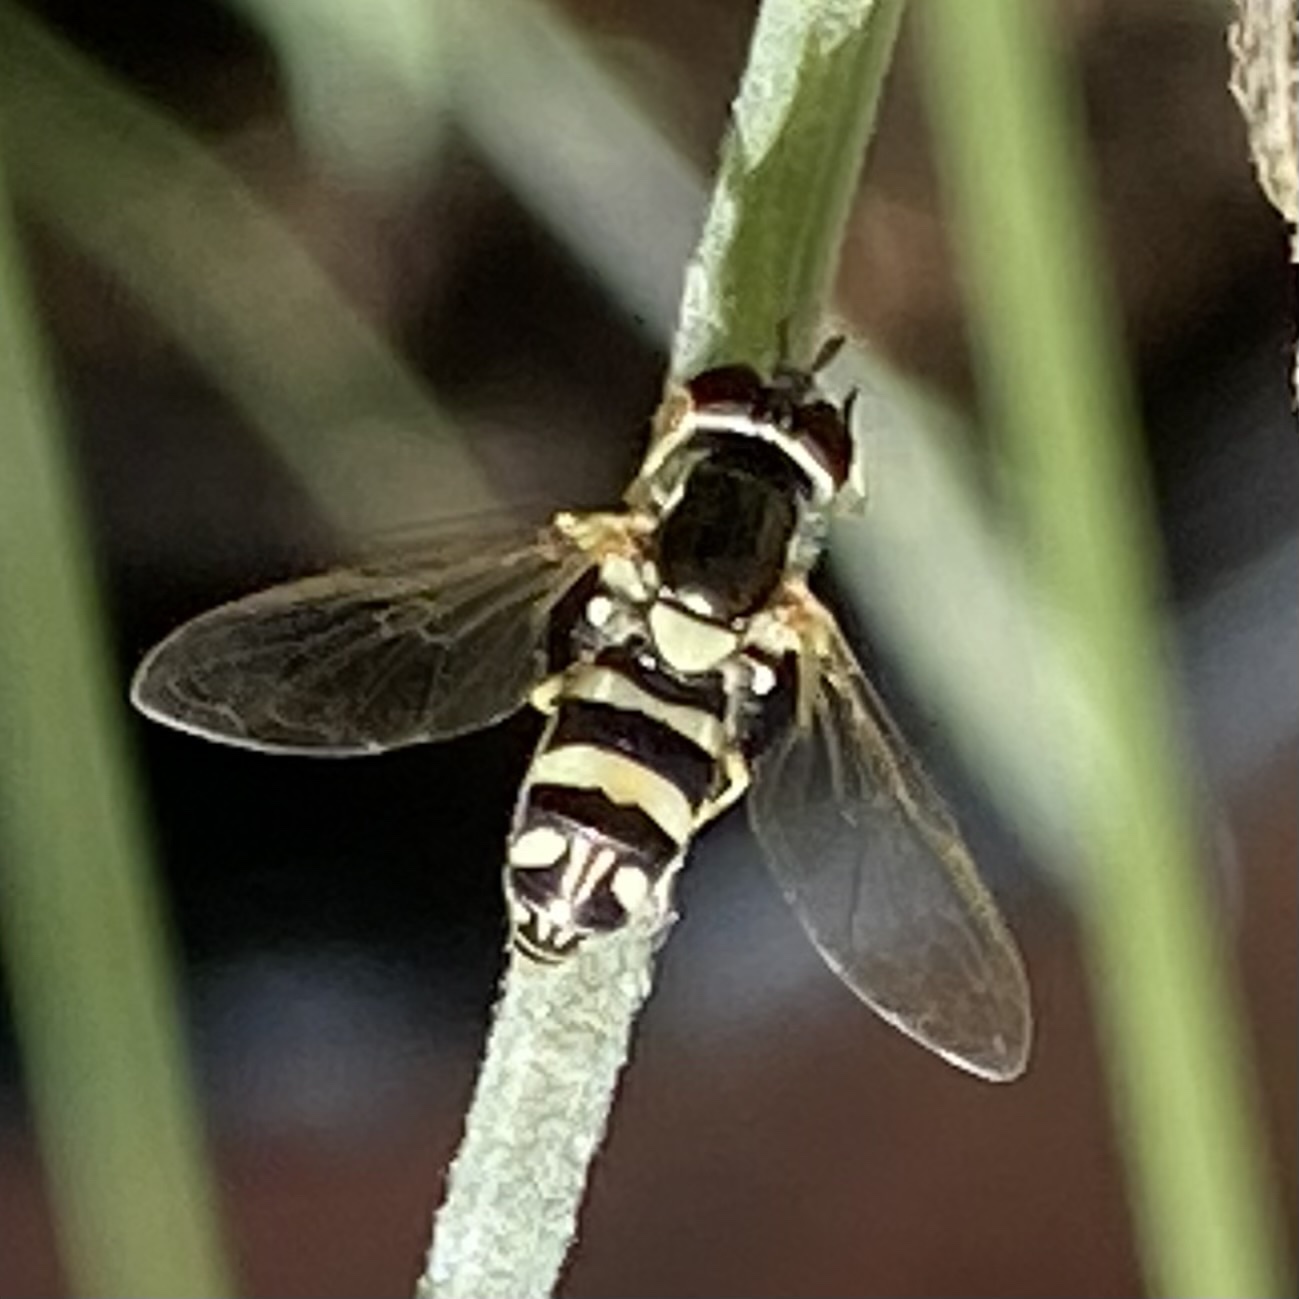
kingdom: Animalia
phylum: Arthropoda
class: Insecta
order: Diptera
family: Syrphidae
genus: Allograpta
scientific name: Allograpta exotica
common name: Syrphid fly
